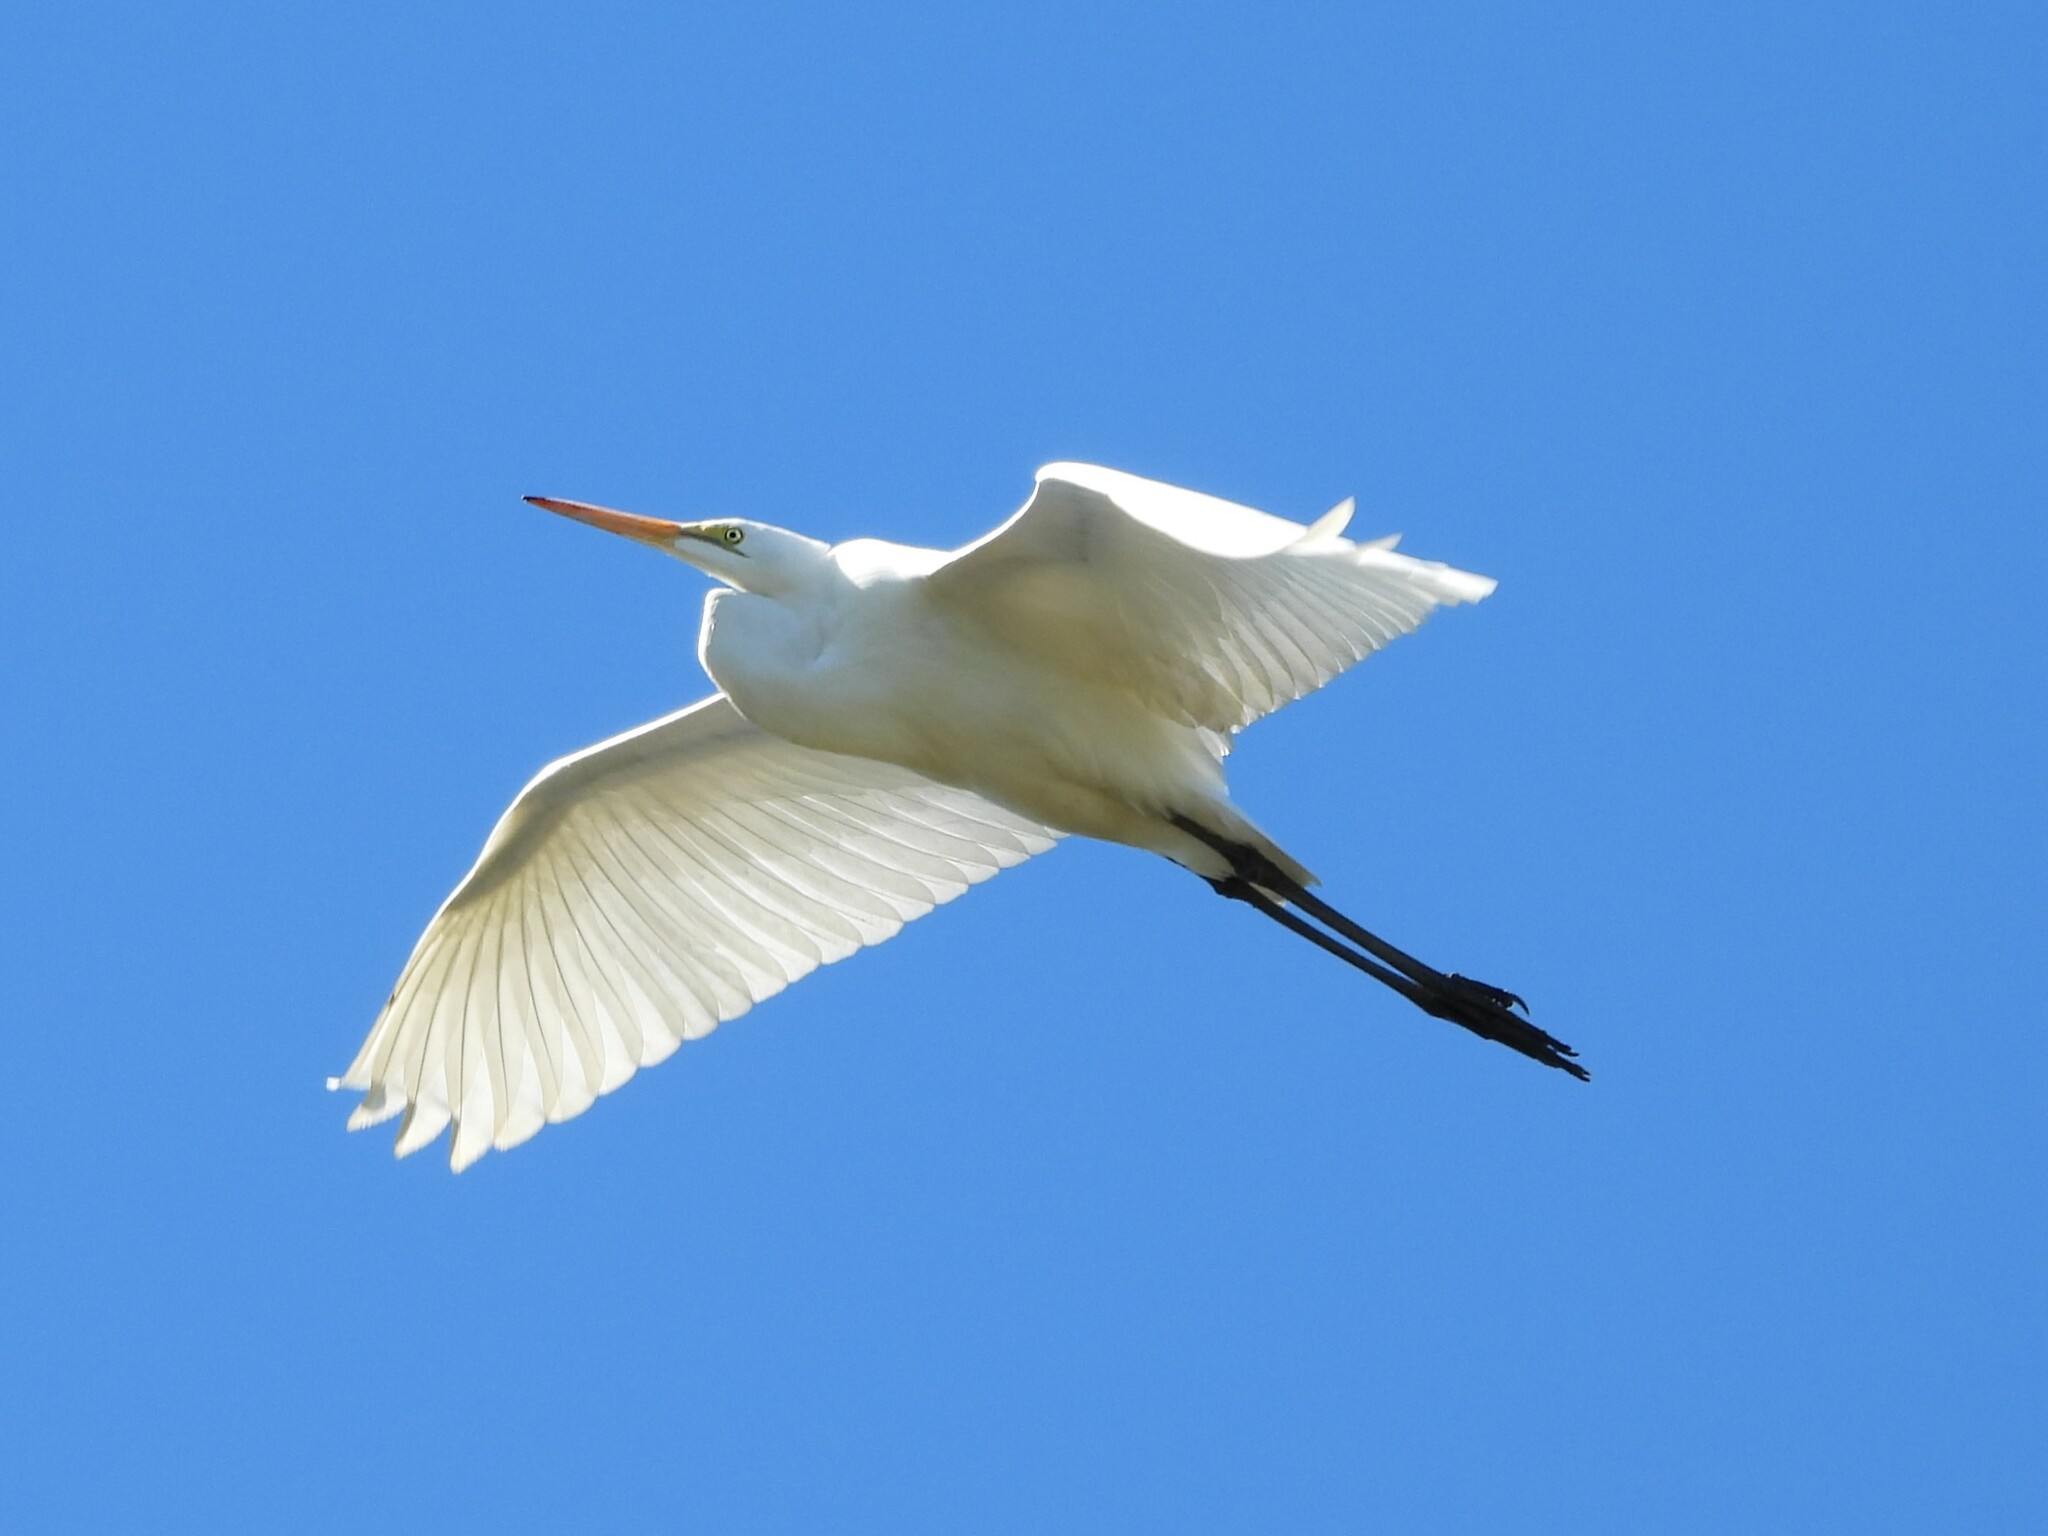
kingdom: Animalia
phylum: Chordata
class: Aves
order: Pelecaniformes
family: Ardeidae
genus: Ardea
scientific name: Ardea alba
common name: Great egret
